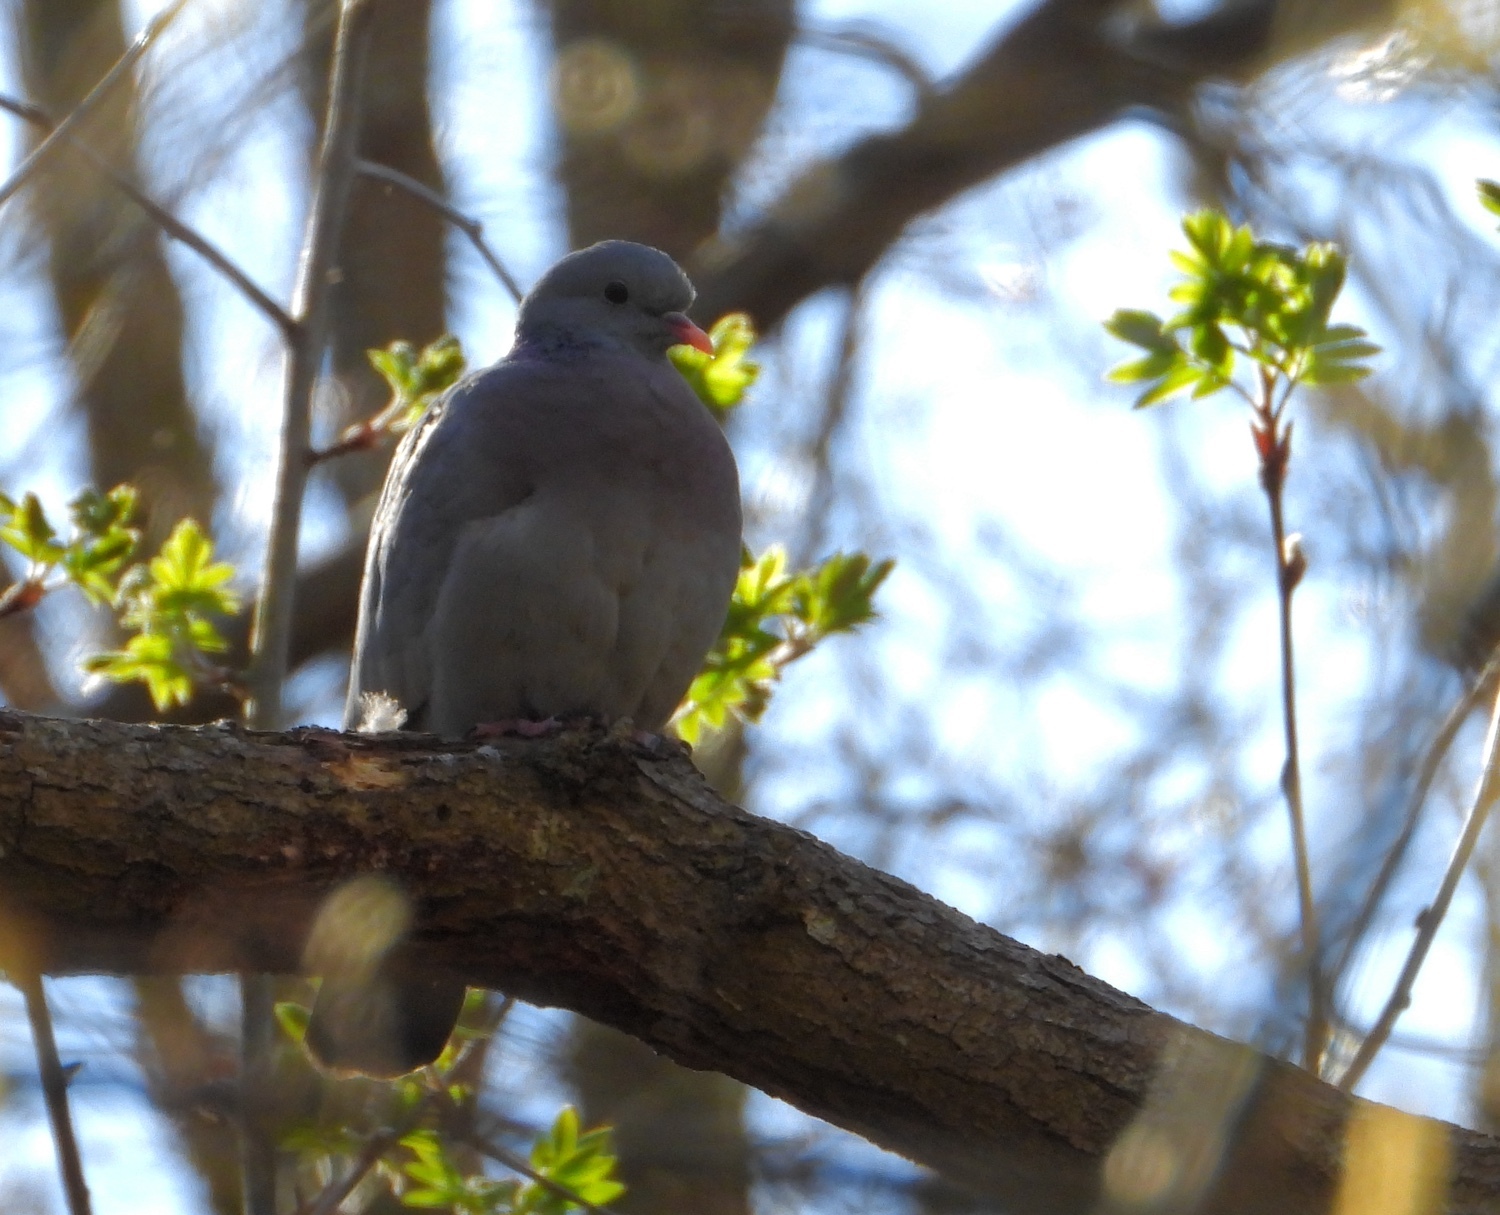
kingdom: Animalia
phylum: Chordata
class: Aves
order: Columbiformes
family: Columbidae
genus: Columba
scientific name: Columba oenas
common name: Stock dove
